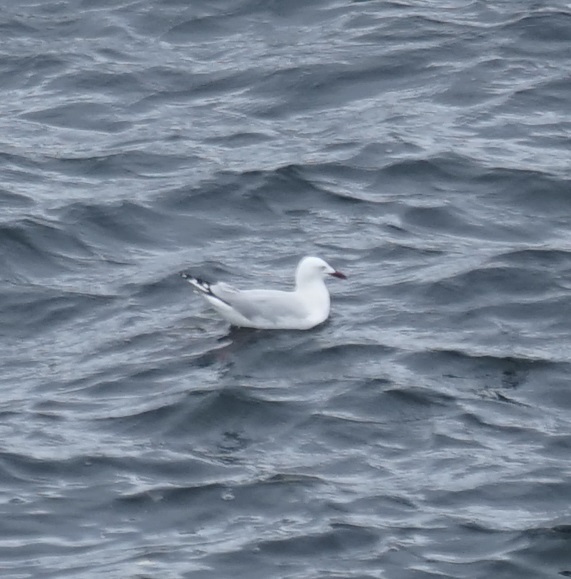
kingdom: Animalia
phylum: Chordata
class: Aves
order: Charadriiformes
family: Laridae
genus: Chroicocephalus
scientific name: Chroicocephalus novaehollandiae
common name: Silver gull
